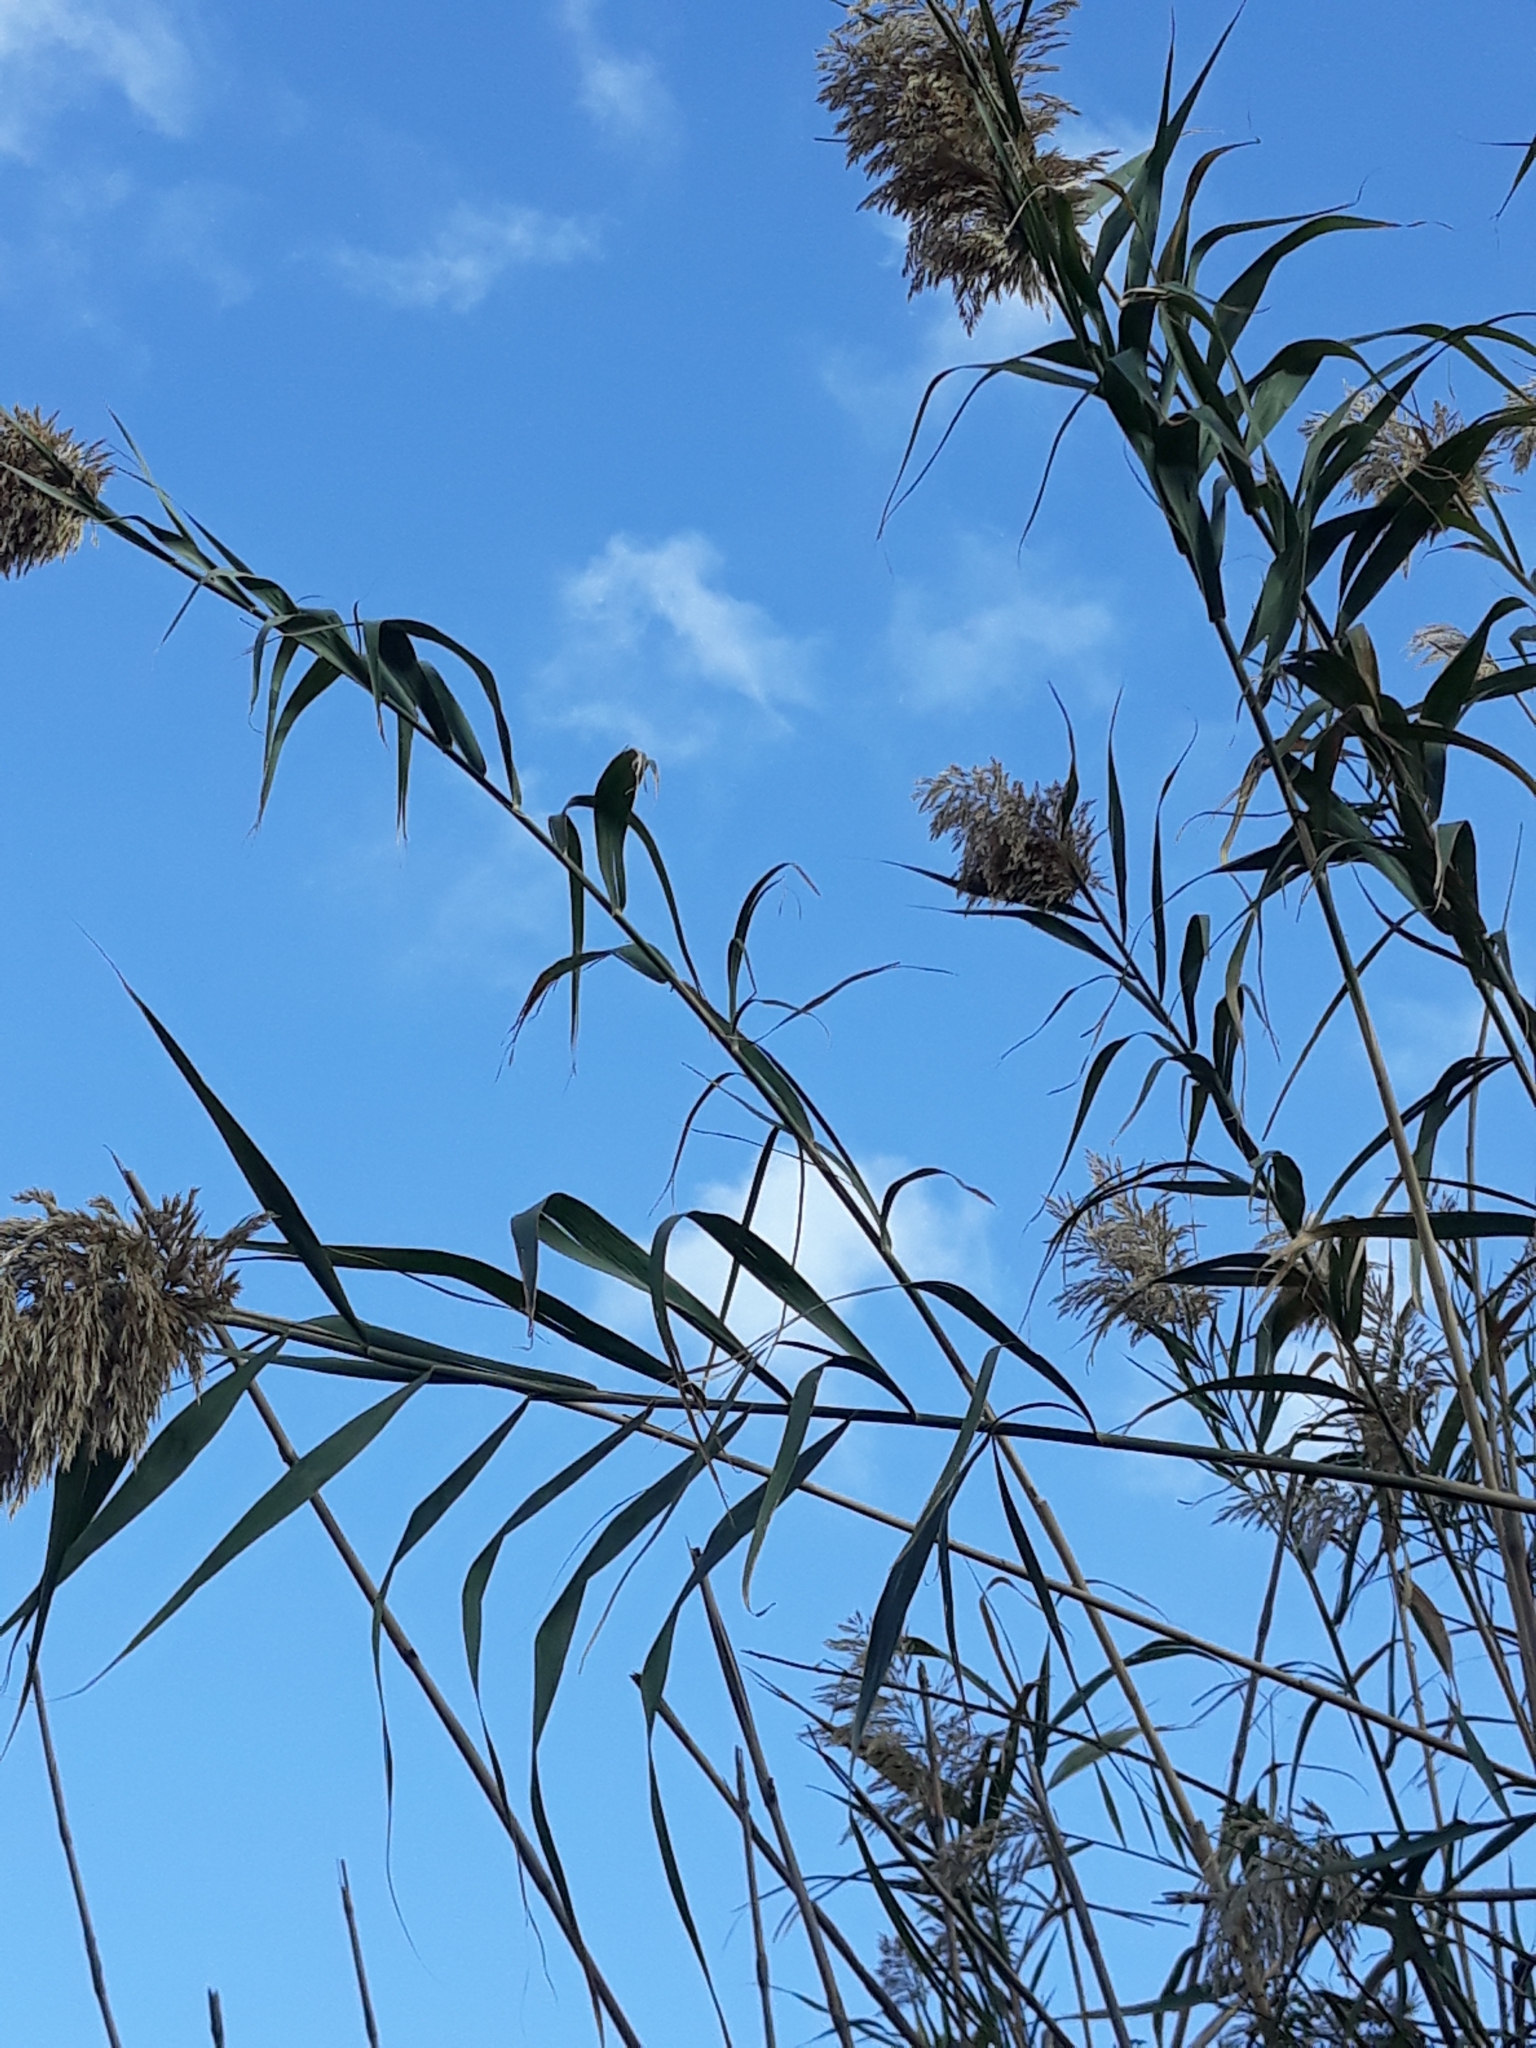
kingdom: Plantae
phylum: Tracheophyta
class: Liliopsida
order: Poales
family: Poaceae
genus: Phragmites
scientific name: Phragmites australis
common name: Common reed
